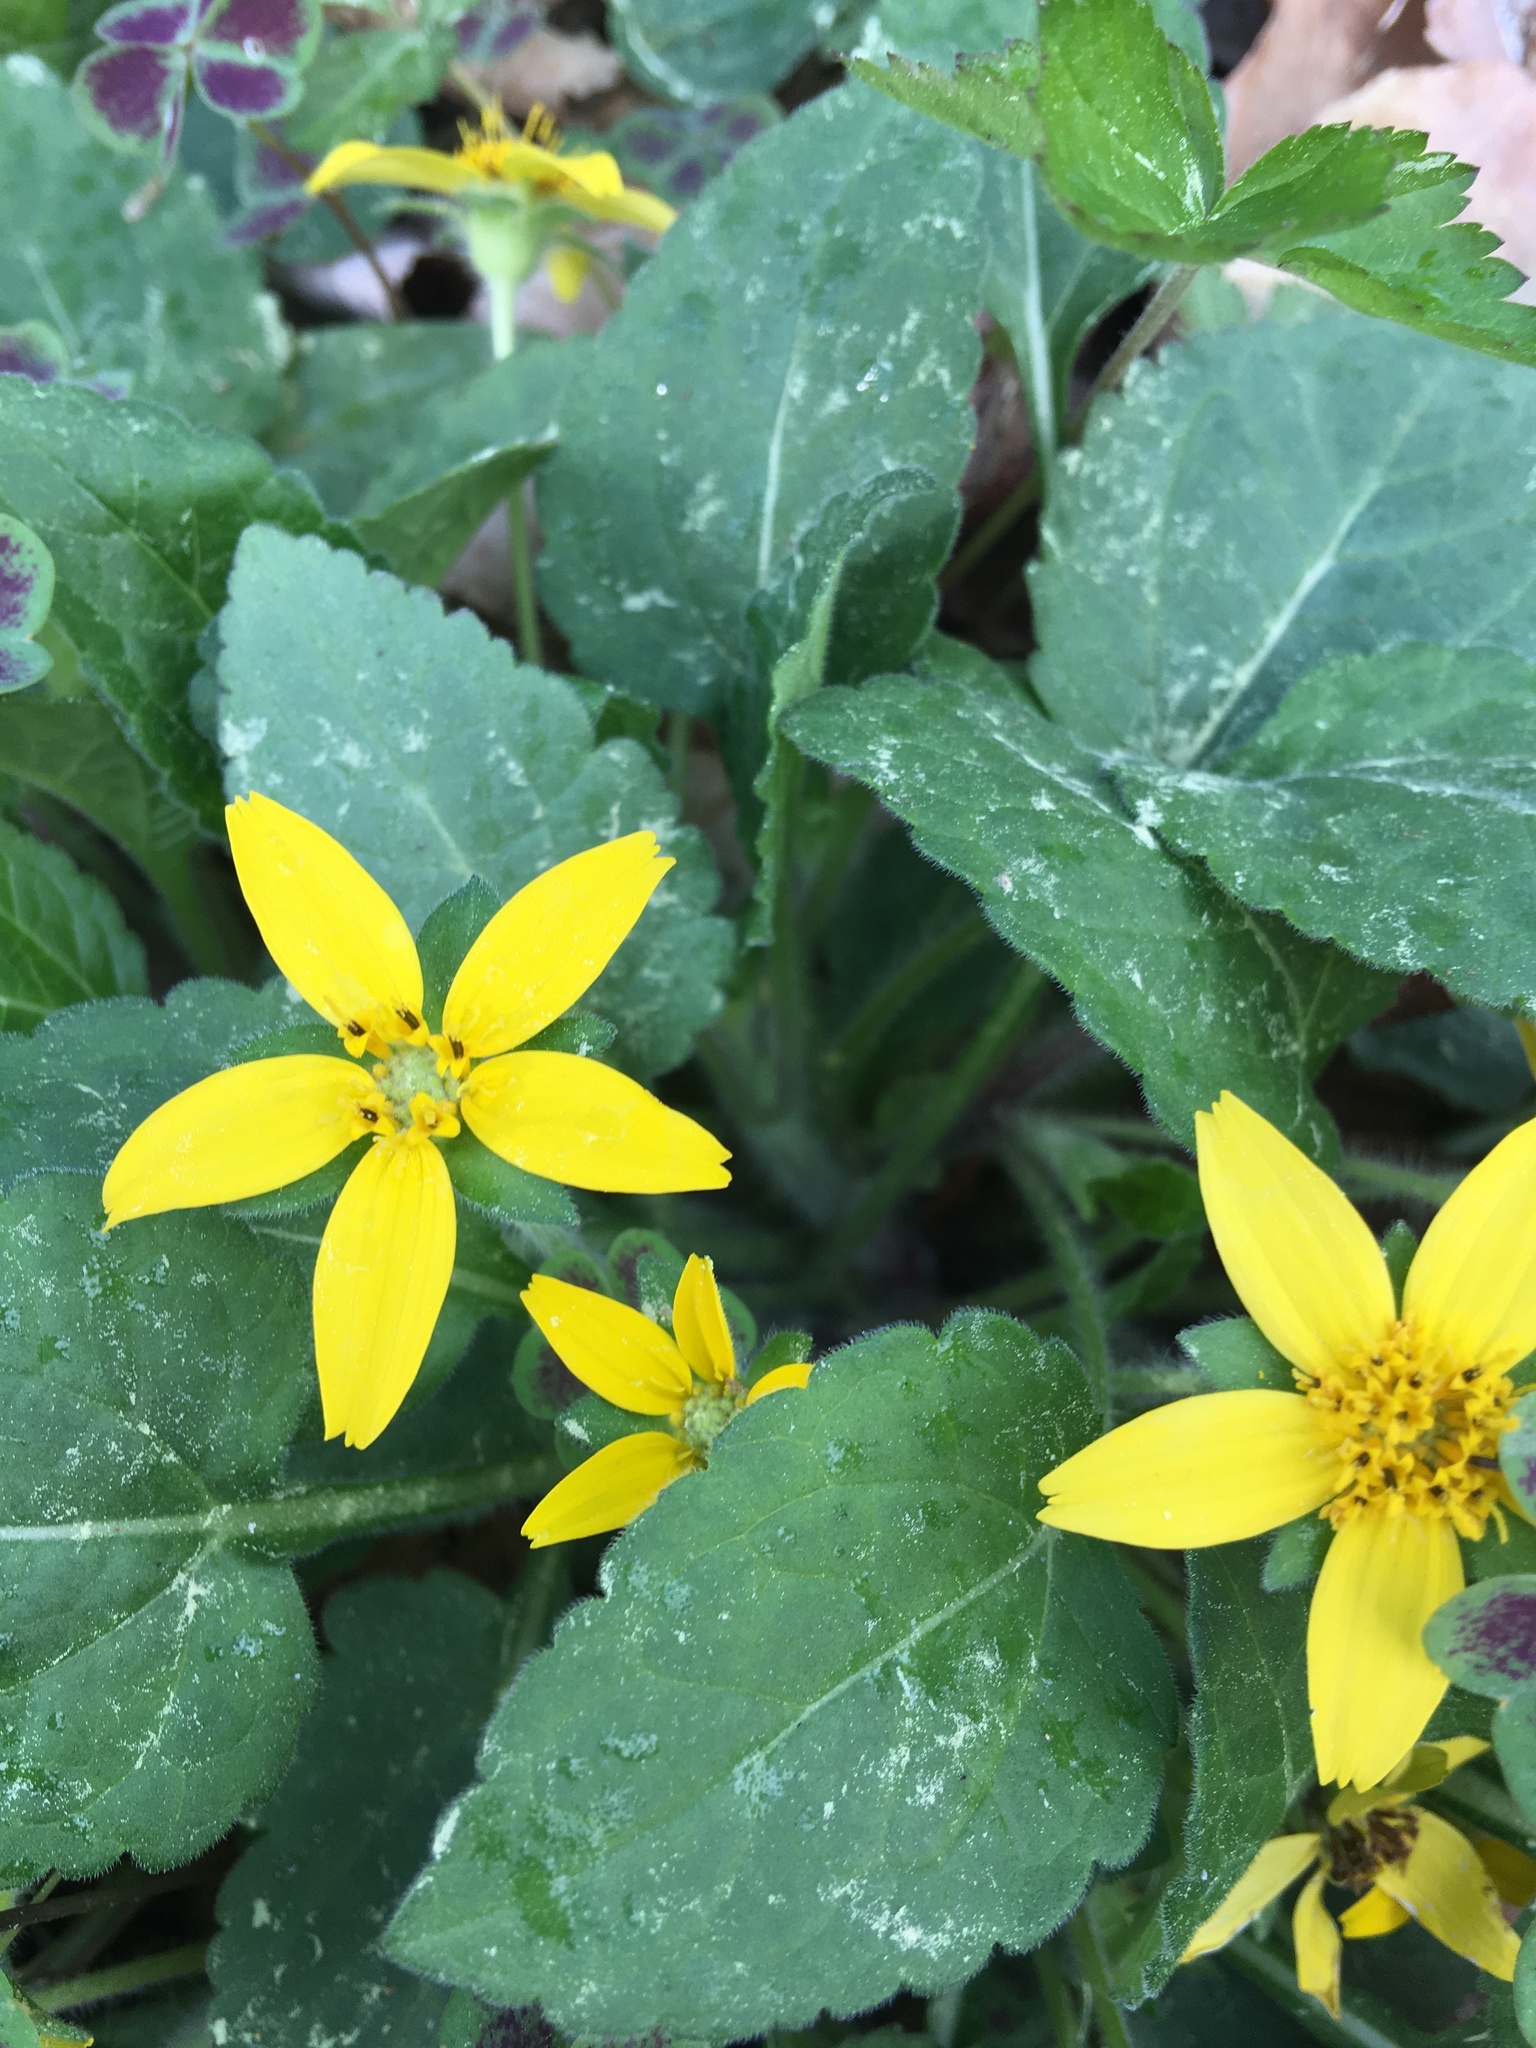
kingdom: Plantae
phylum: Tracheophyta
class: Magnoliopsida
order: Asterales
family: Asteraceae
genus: Chrysogonum
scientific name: Chrysogonum virginianum
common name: Golden-knee
